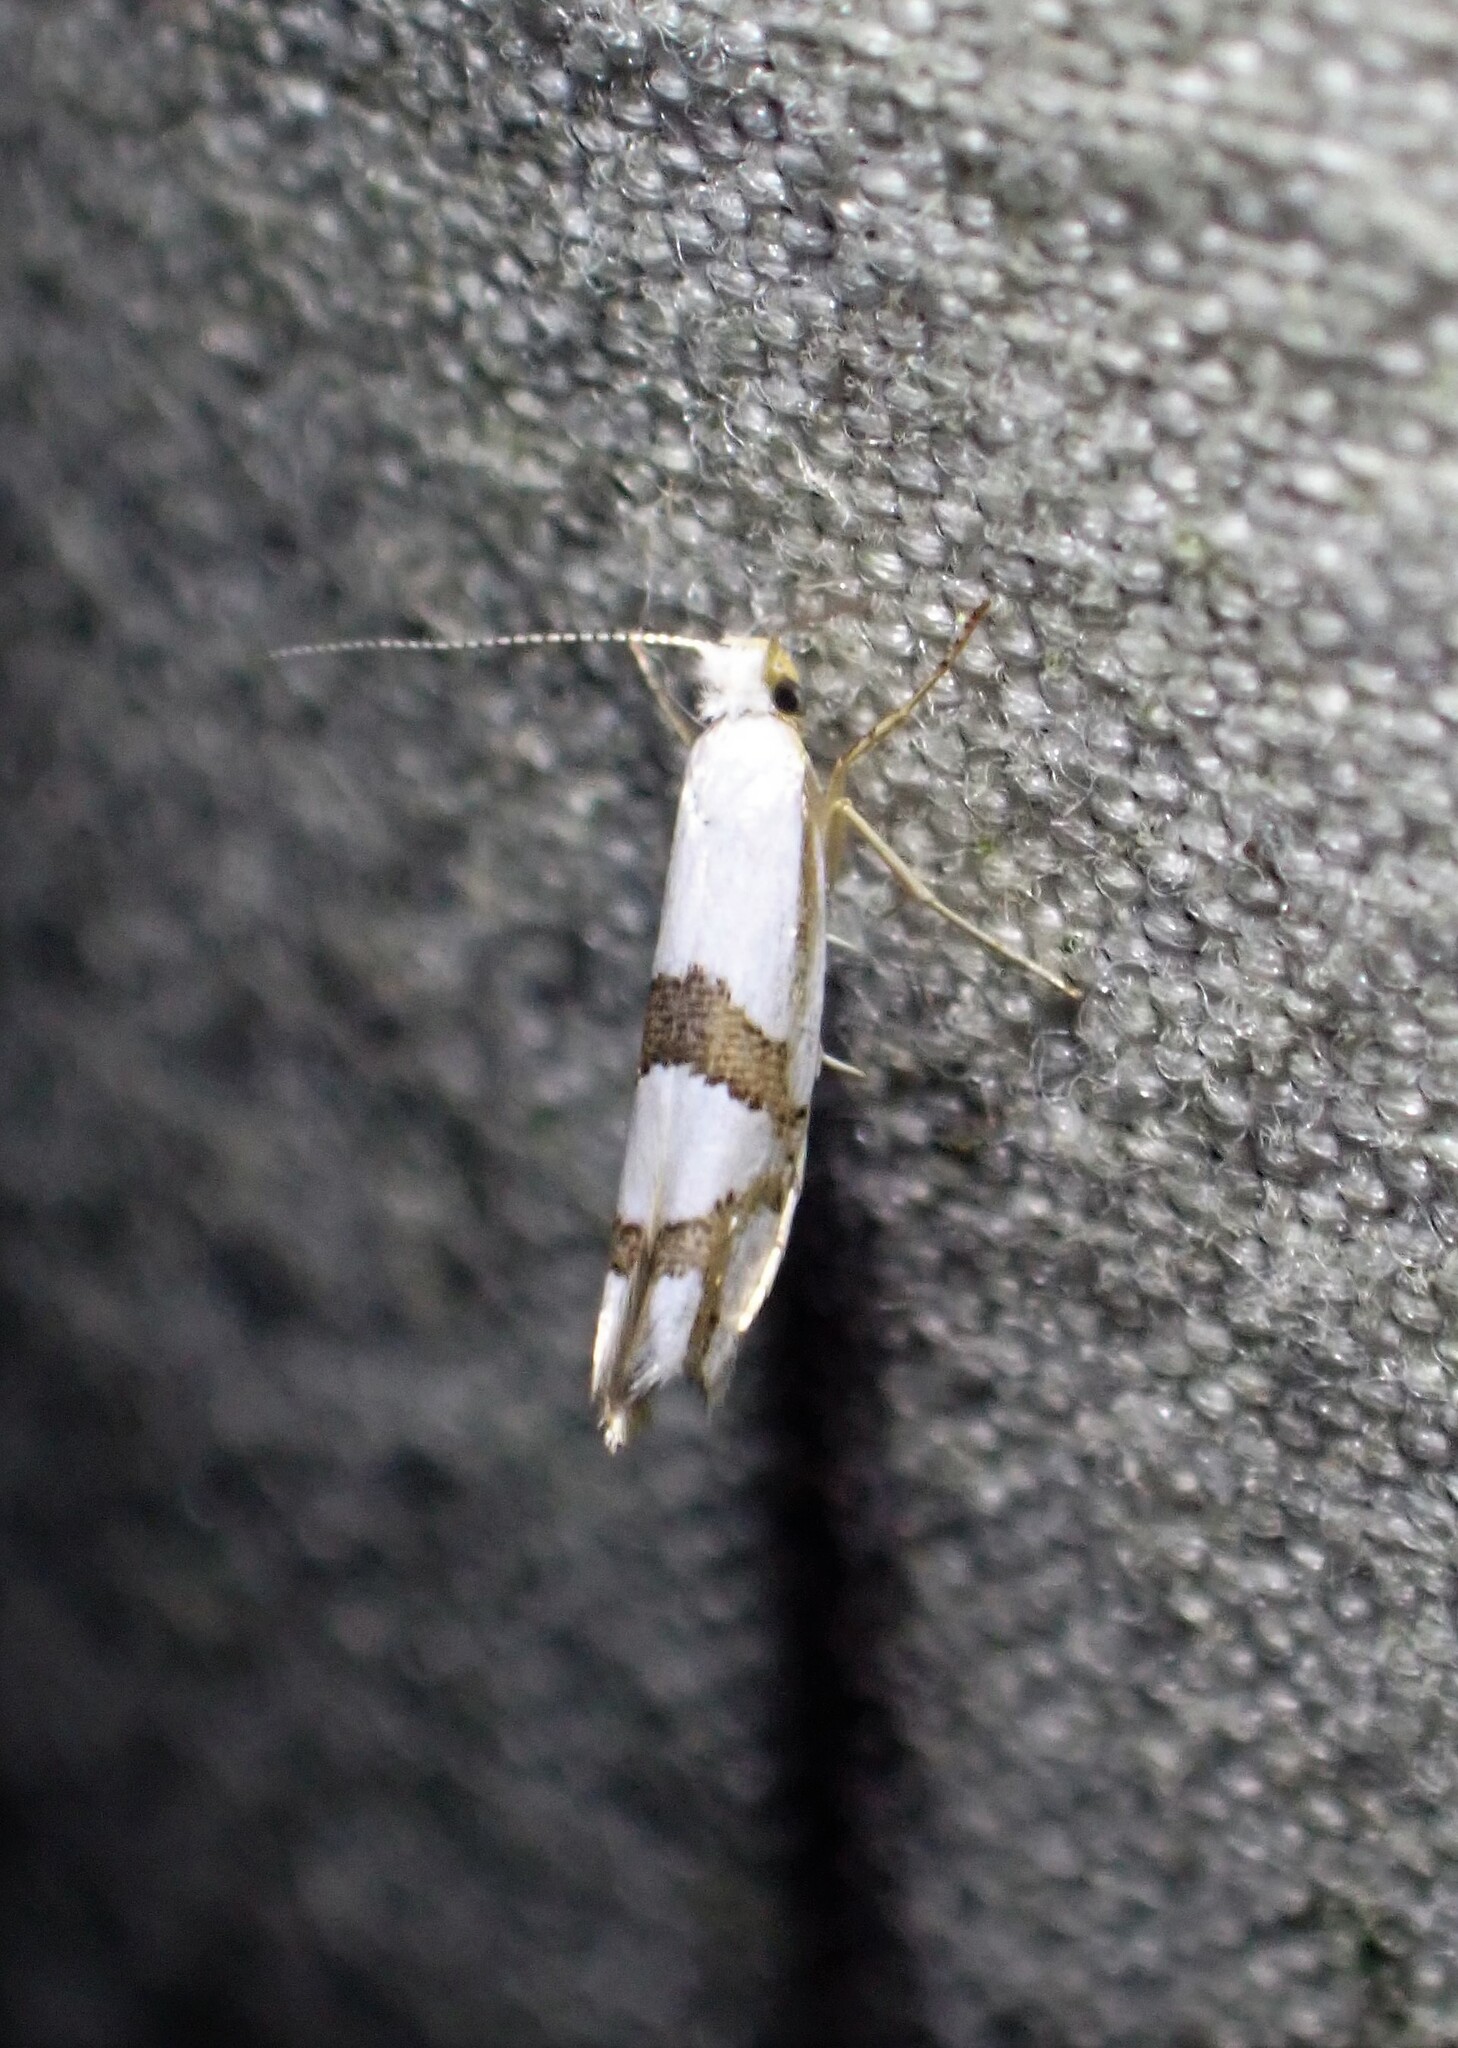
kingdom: Animalia
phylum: Arthropoda
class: Insecta
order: Lepidoptera
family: Argyresthiidae
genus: Argyresthia
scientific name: Argyresthia oreasella
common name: Cherry shoot borer moth
